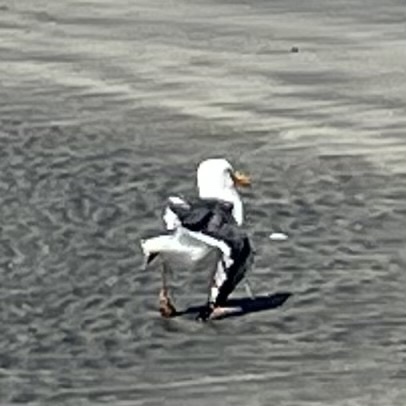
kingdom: Animalia
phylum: Chordata
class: Aves
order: Charadriiformes
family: Laridae
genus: Larus
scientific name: Larus occidentalis
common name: Western gull
